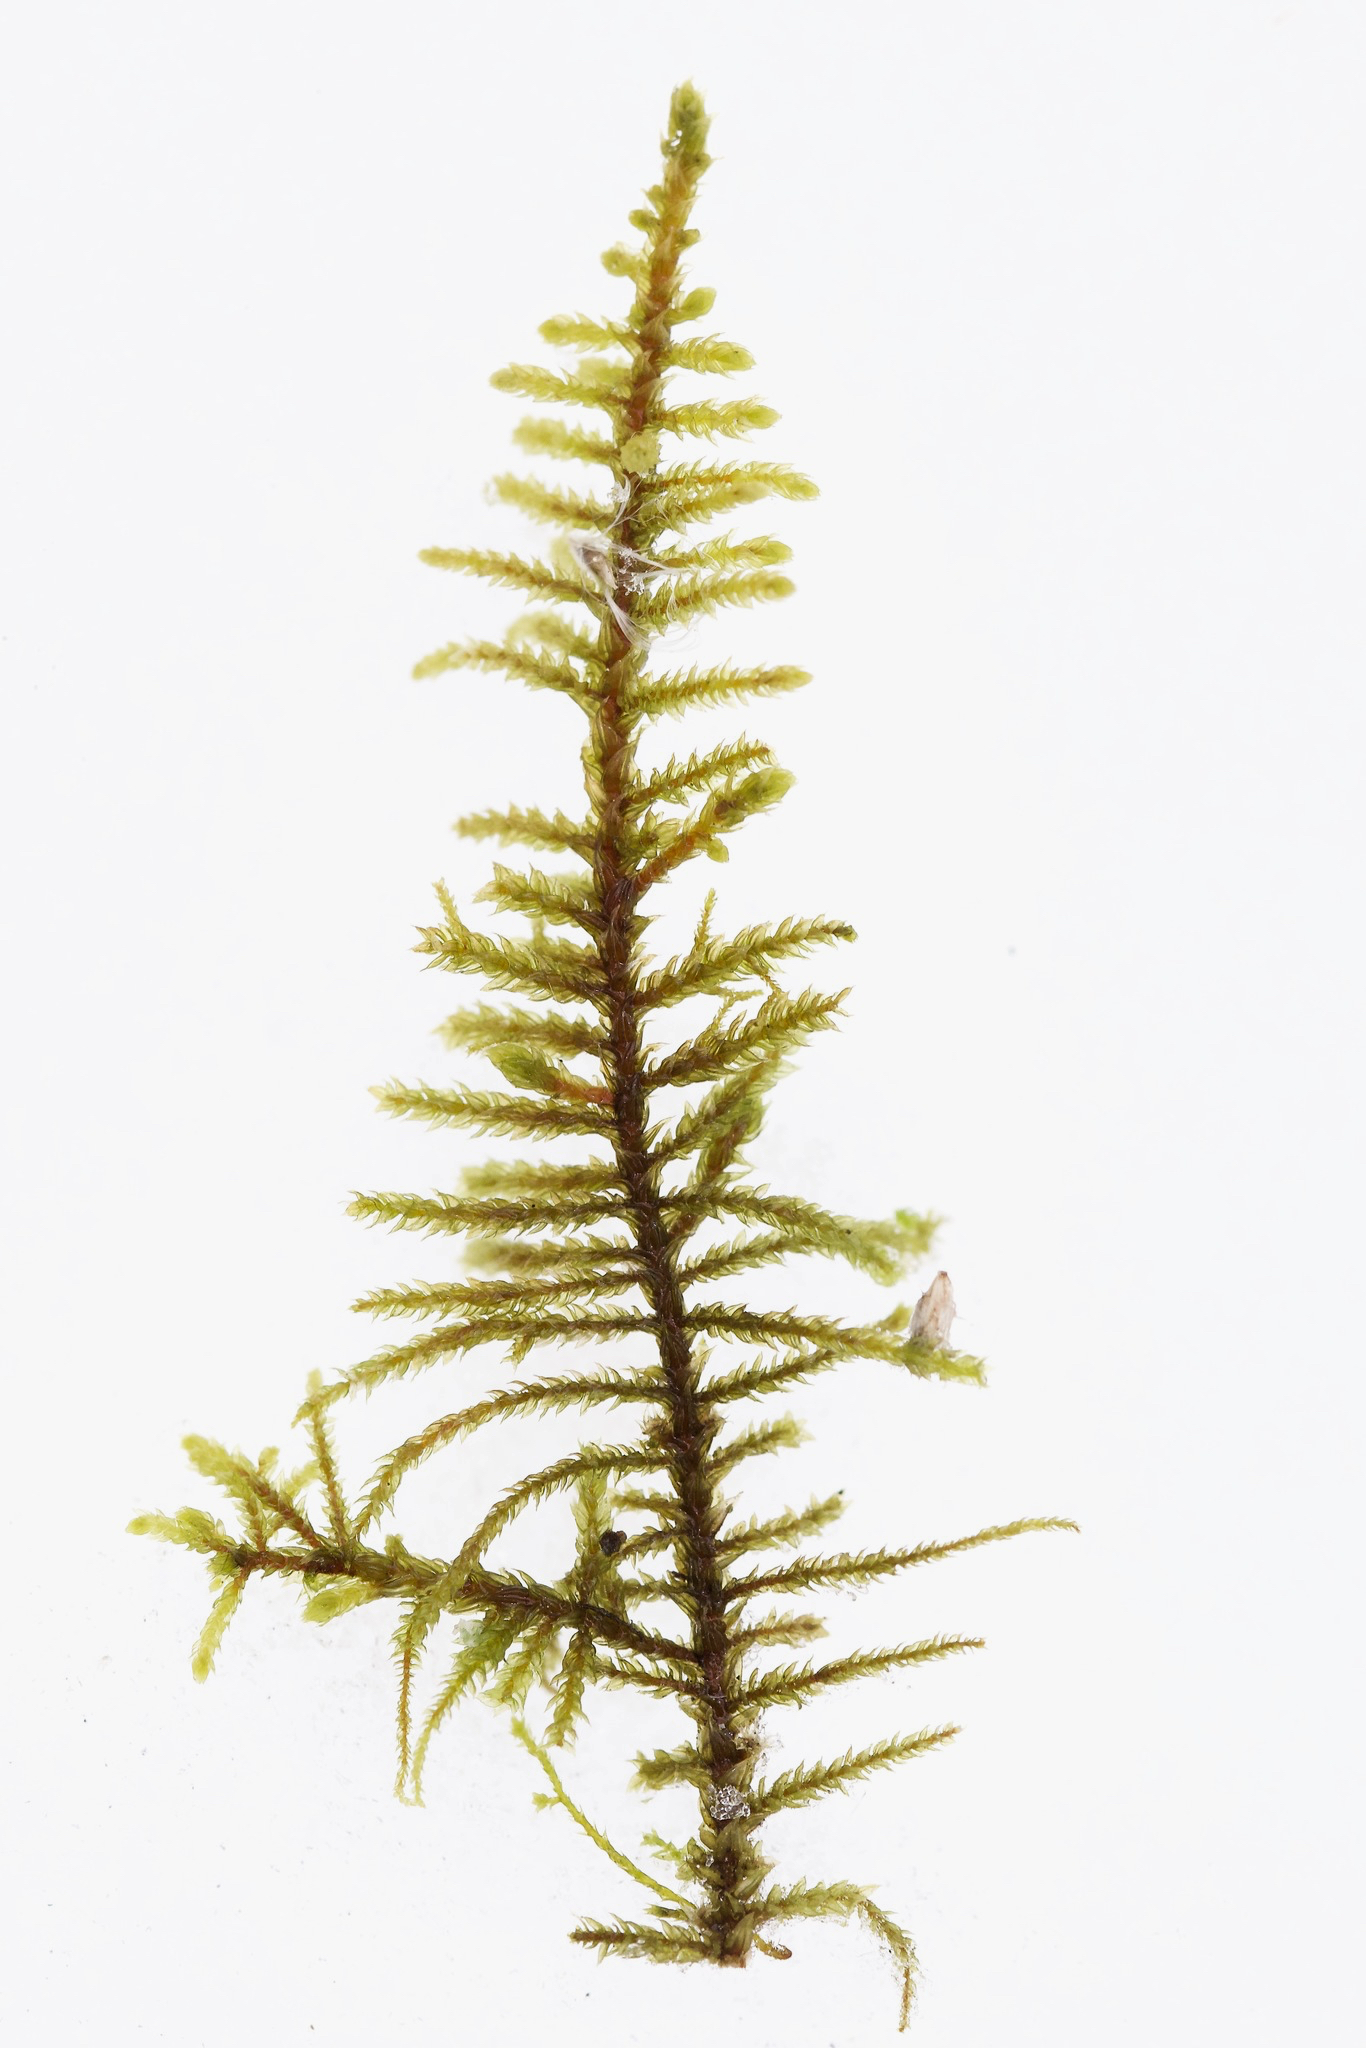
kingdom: Plantae
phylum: Bryophyta
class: Bryopsida
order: Hypnales
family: Thuidiaceae
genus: Abietinella
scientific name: Abietinella abietina
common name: Wiry fern moss
